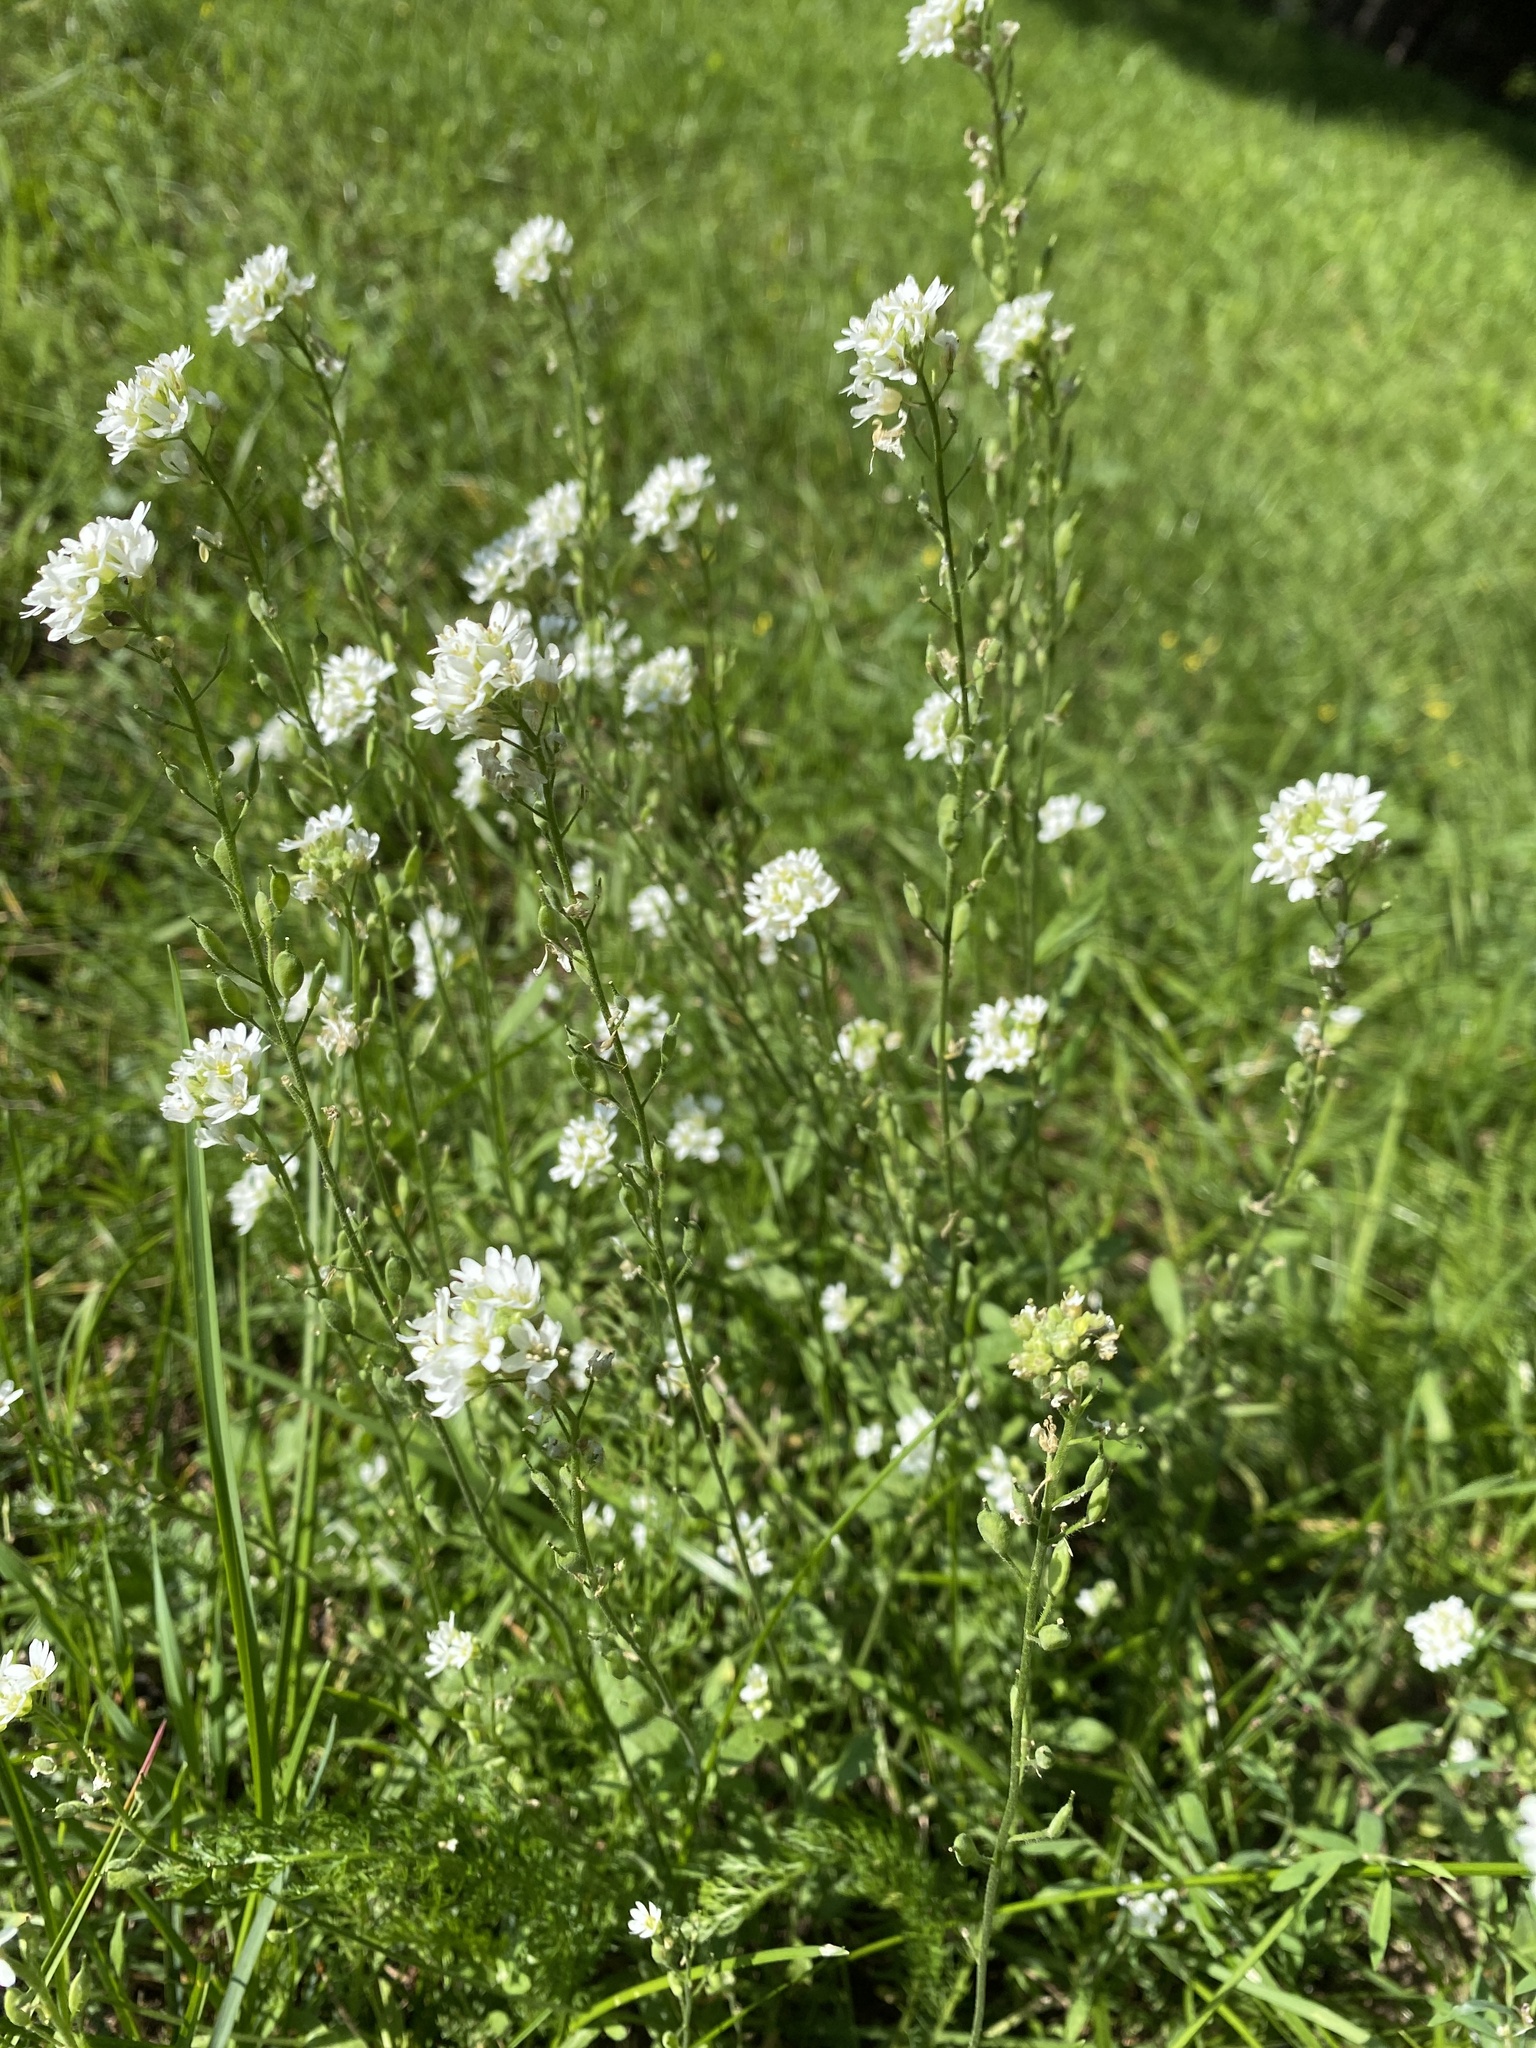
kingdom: Plantae
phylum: Tracheophyta
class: Magnoliopsida
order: Brassicales
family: Brassicaceae
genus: Berteroa
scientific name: Berteroa incana
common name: Hoary alison
